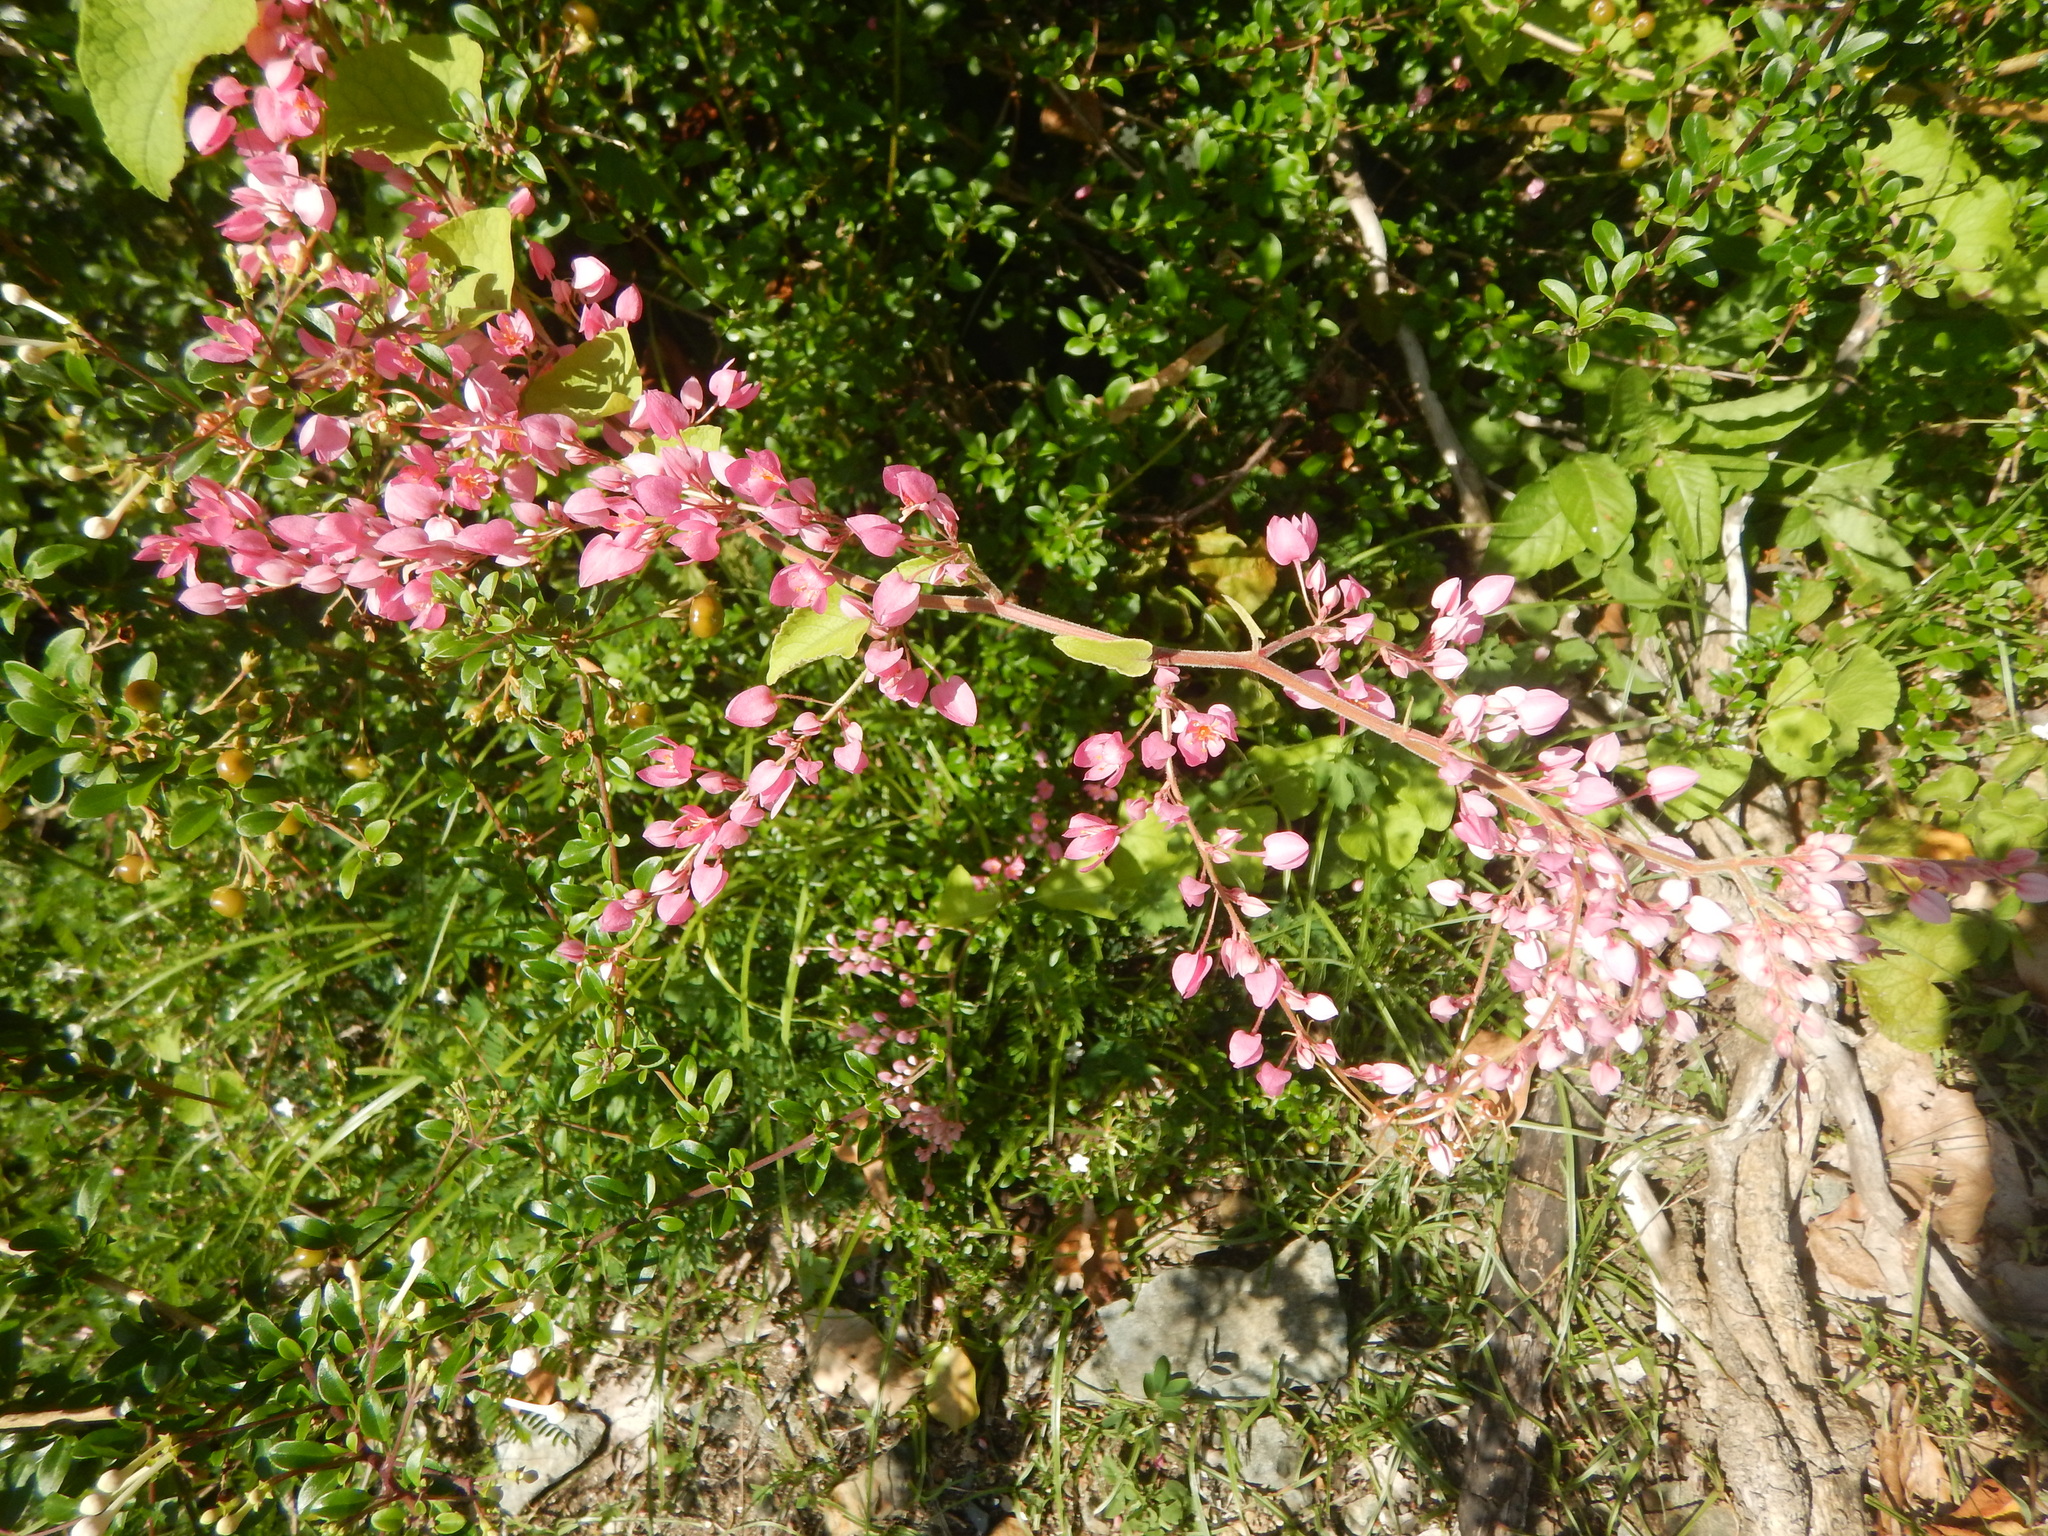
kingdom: Plantae
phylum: Tracheophyta
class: Magnoliopsida
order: Caryophyllales
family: Polygonaceae
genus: Antigonon
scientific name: Antigonon leptopus
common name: Coral vine
